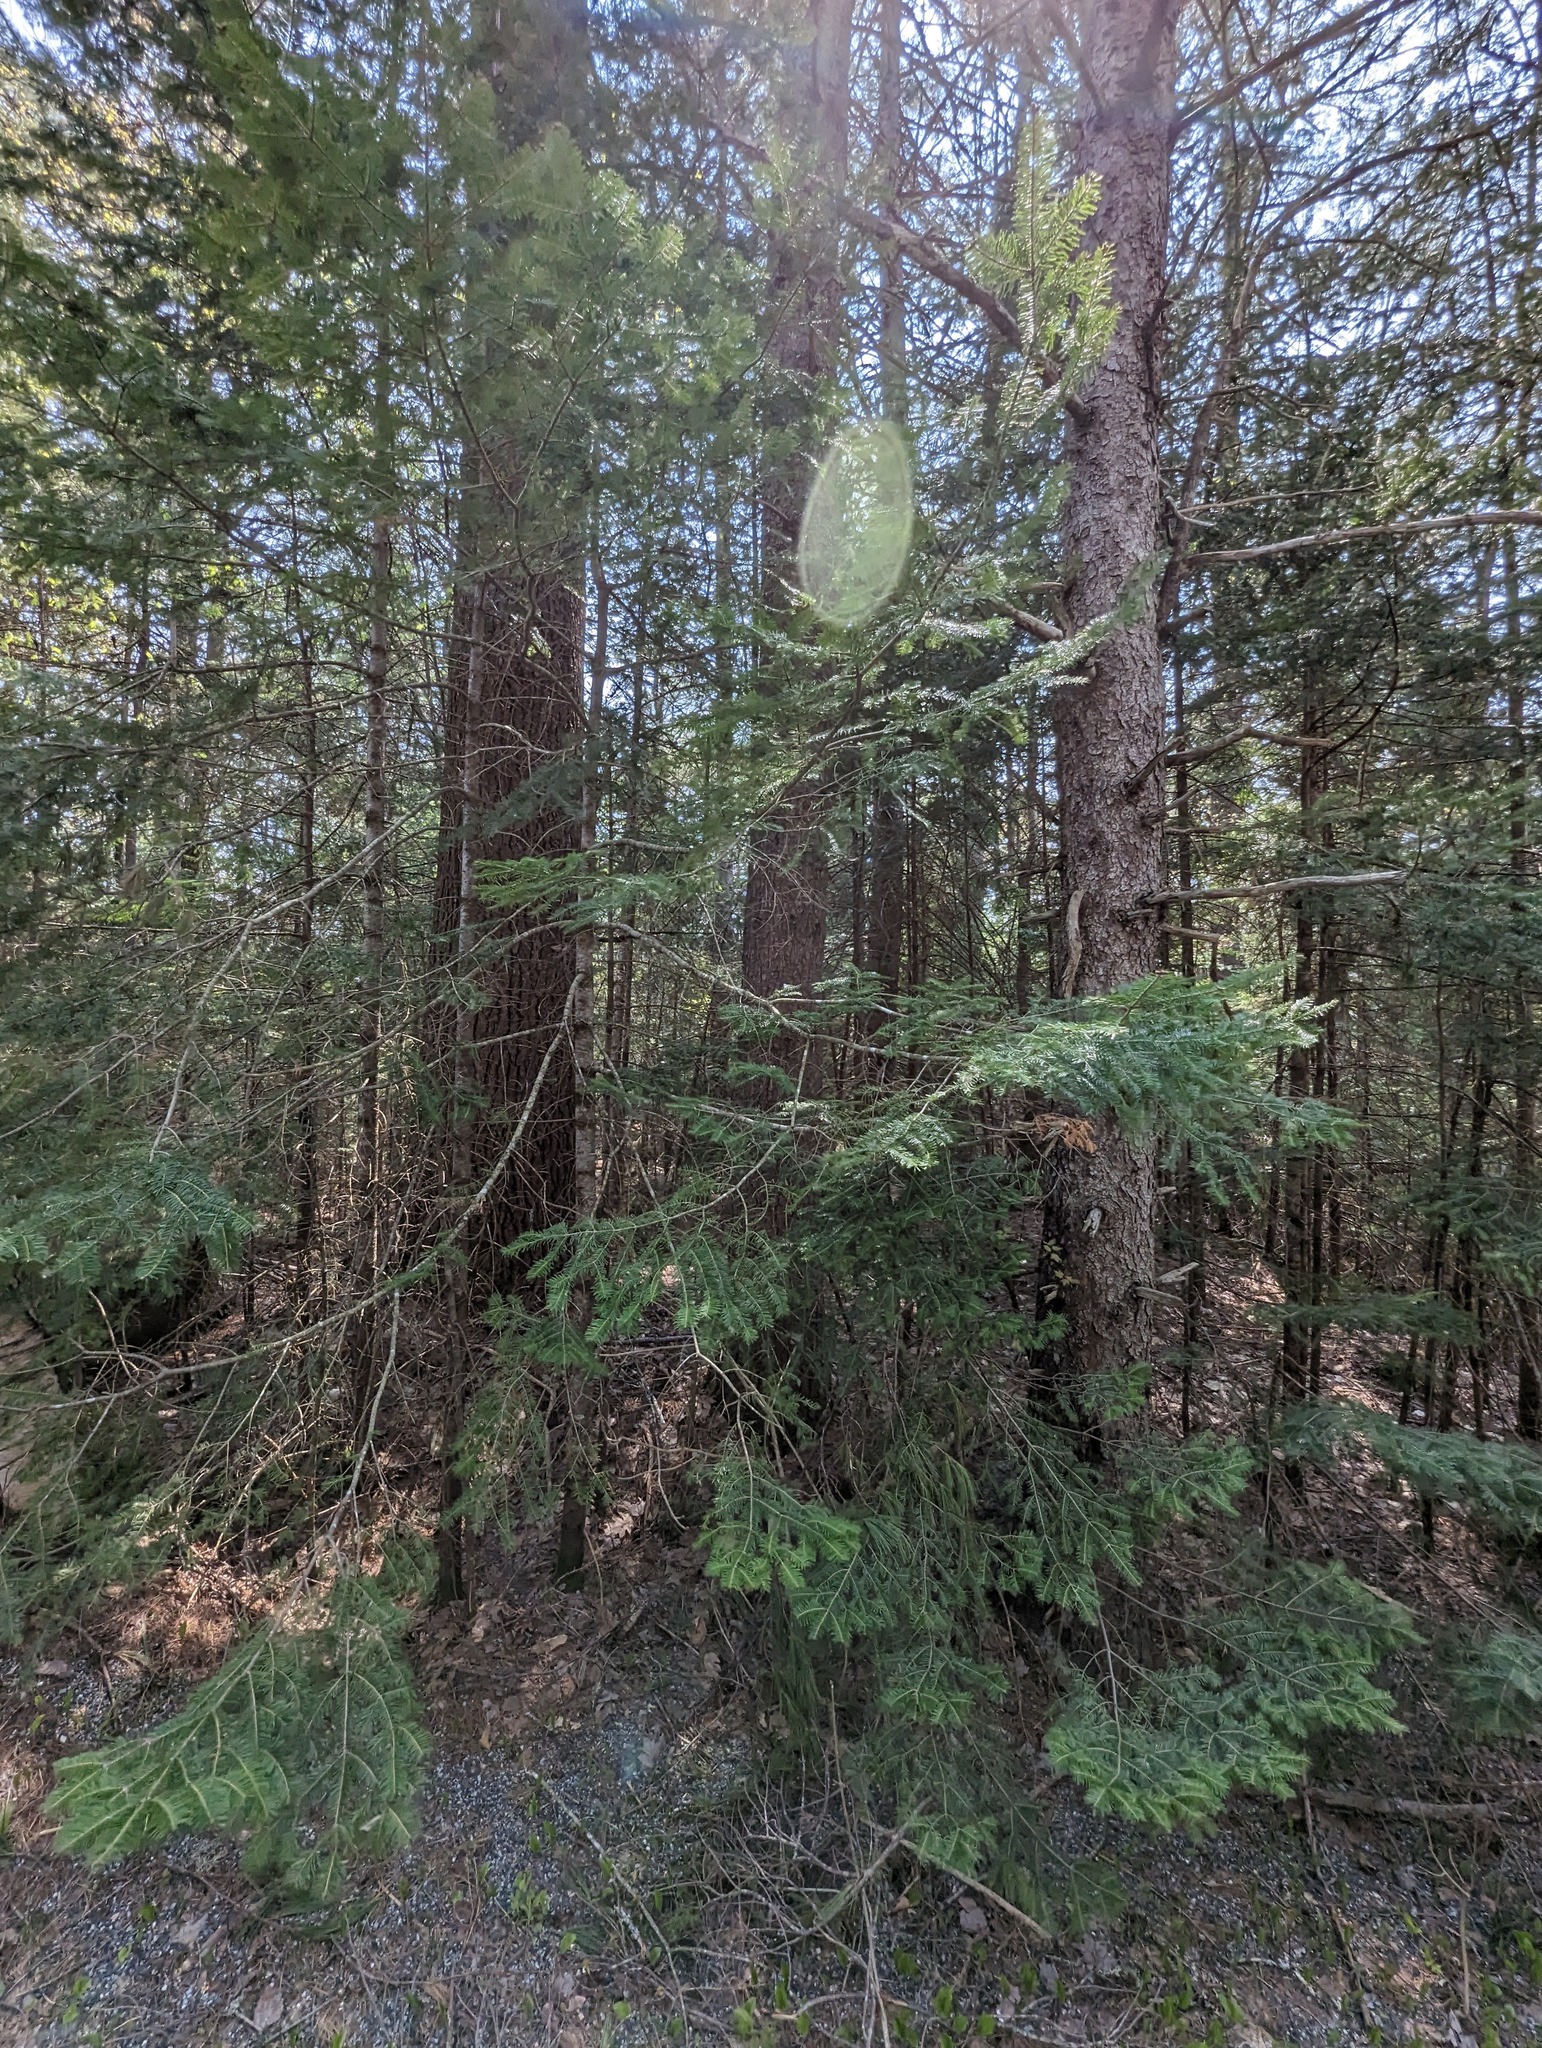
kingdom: Plantae
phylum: Tracheophyta
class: Pinopsida
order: Pinales
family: Pinaceae
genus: Abies
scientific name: Abies balsamea
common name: Balsam fir
